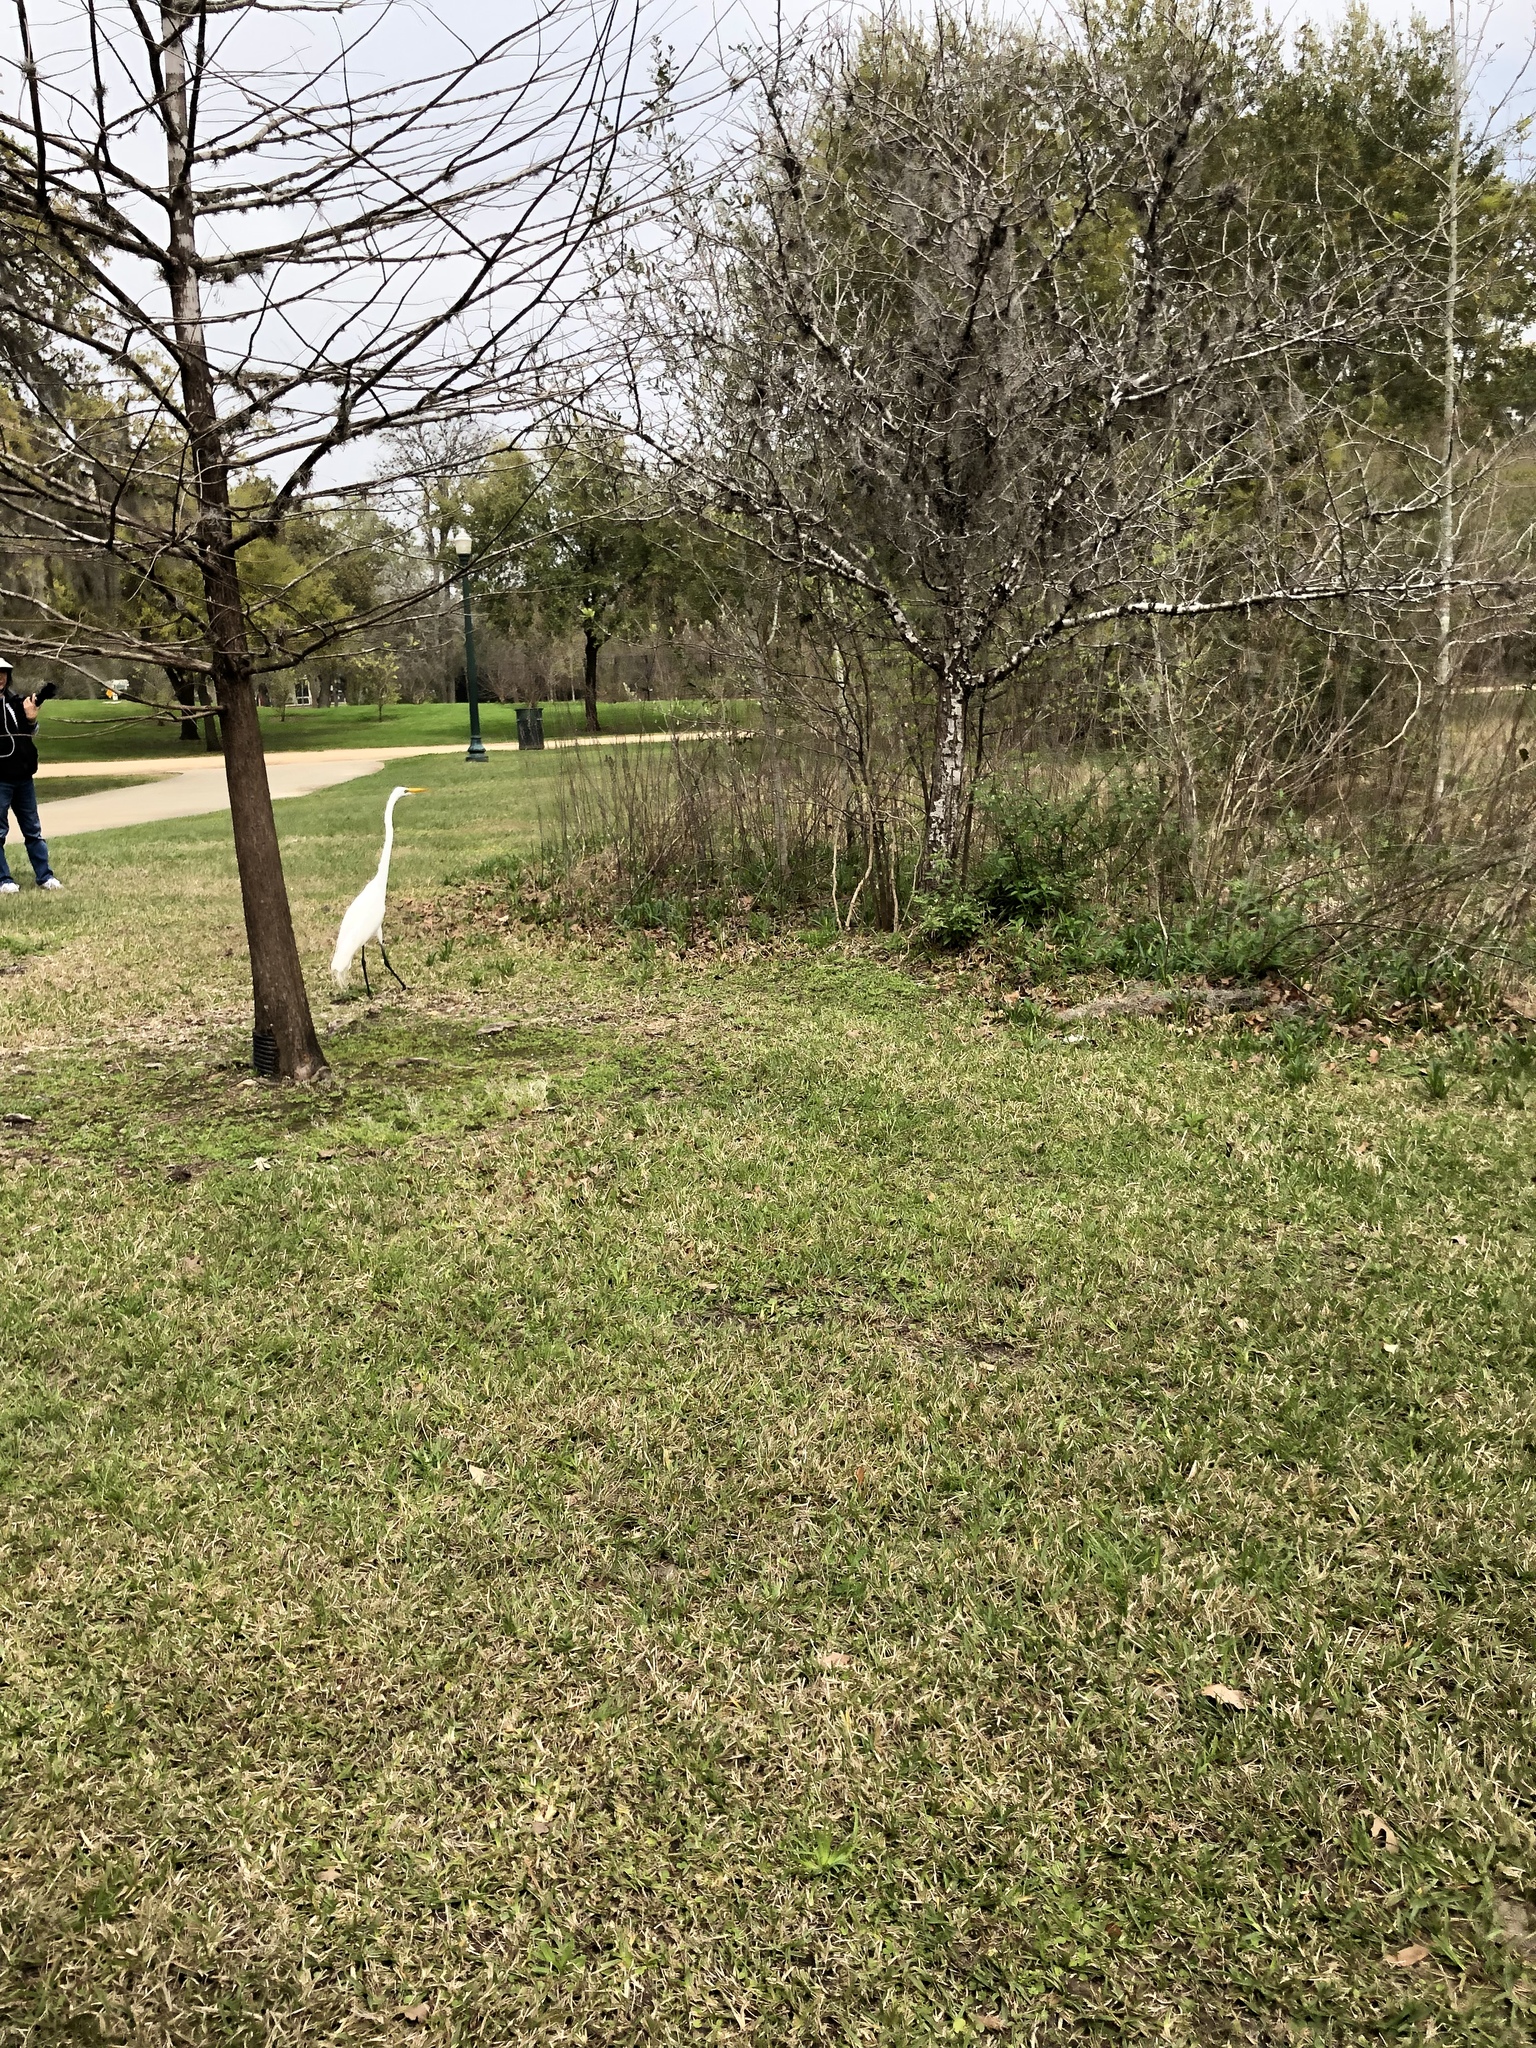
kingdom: Animalia
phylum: Chordata
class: Aves
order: Pelecaniformes
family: Ardeidae
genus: Ardea
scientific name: Ardea alba
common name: Great egret
